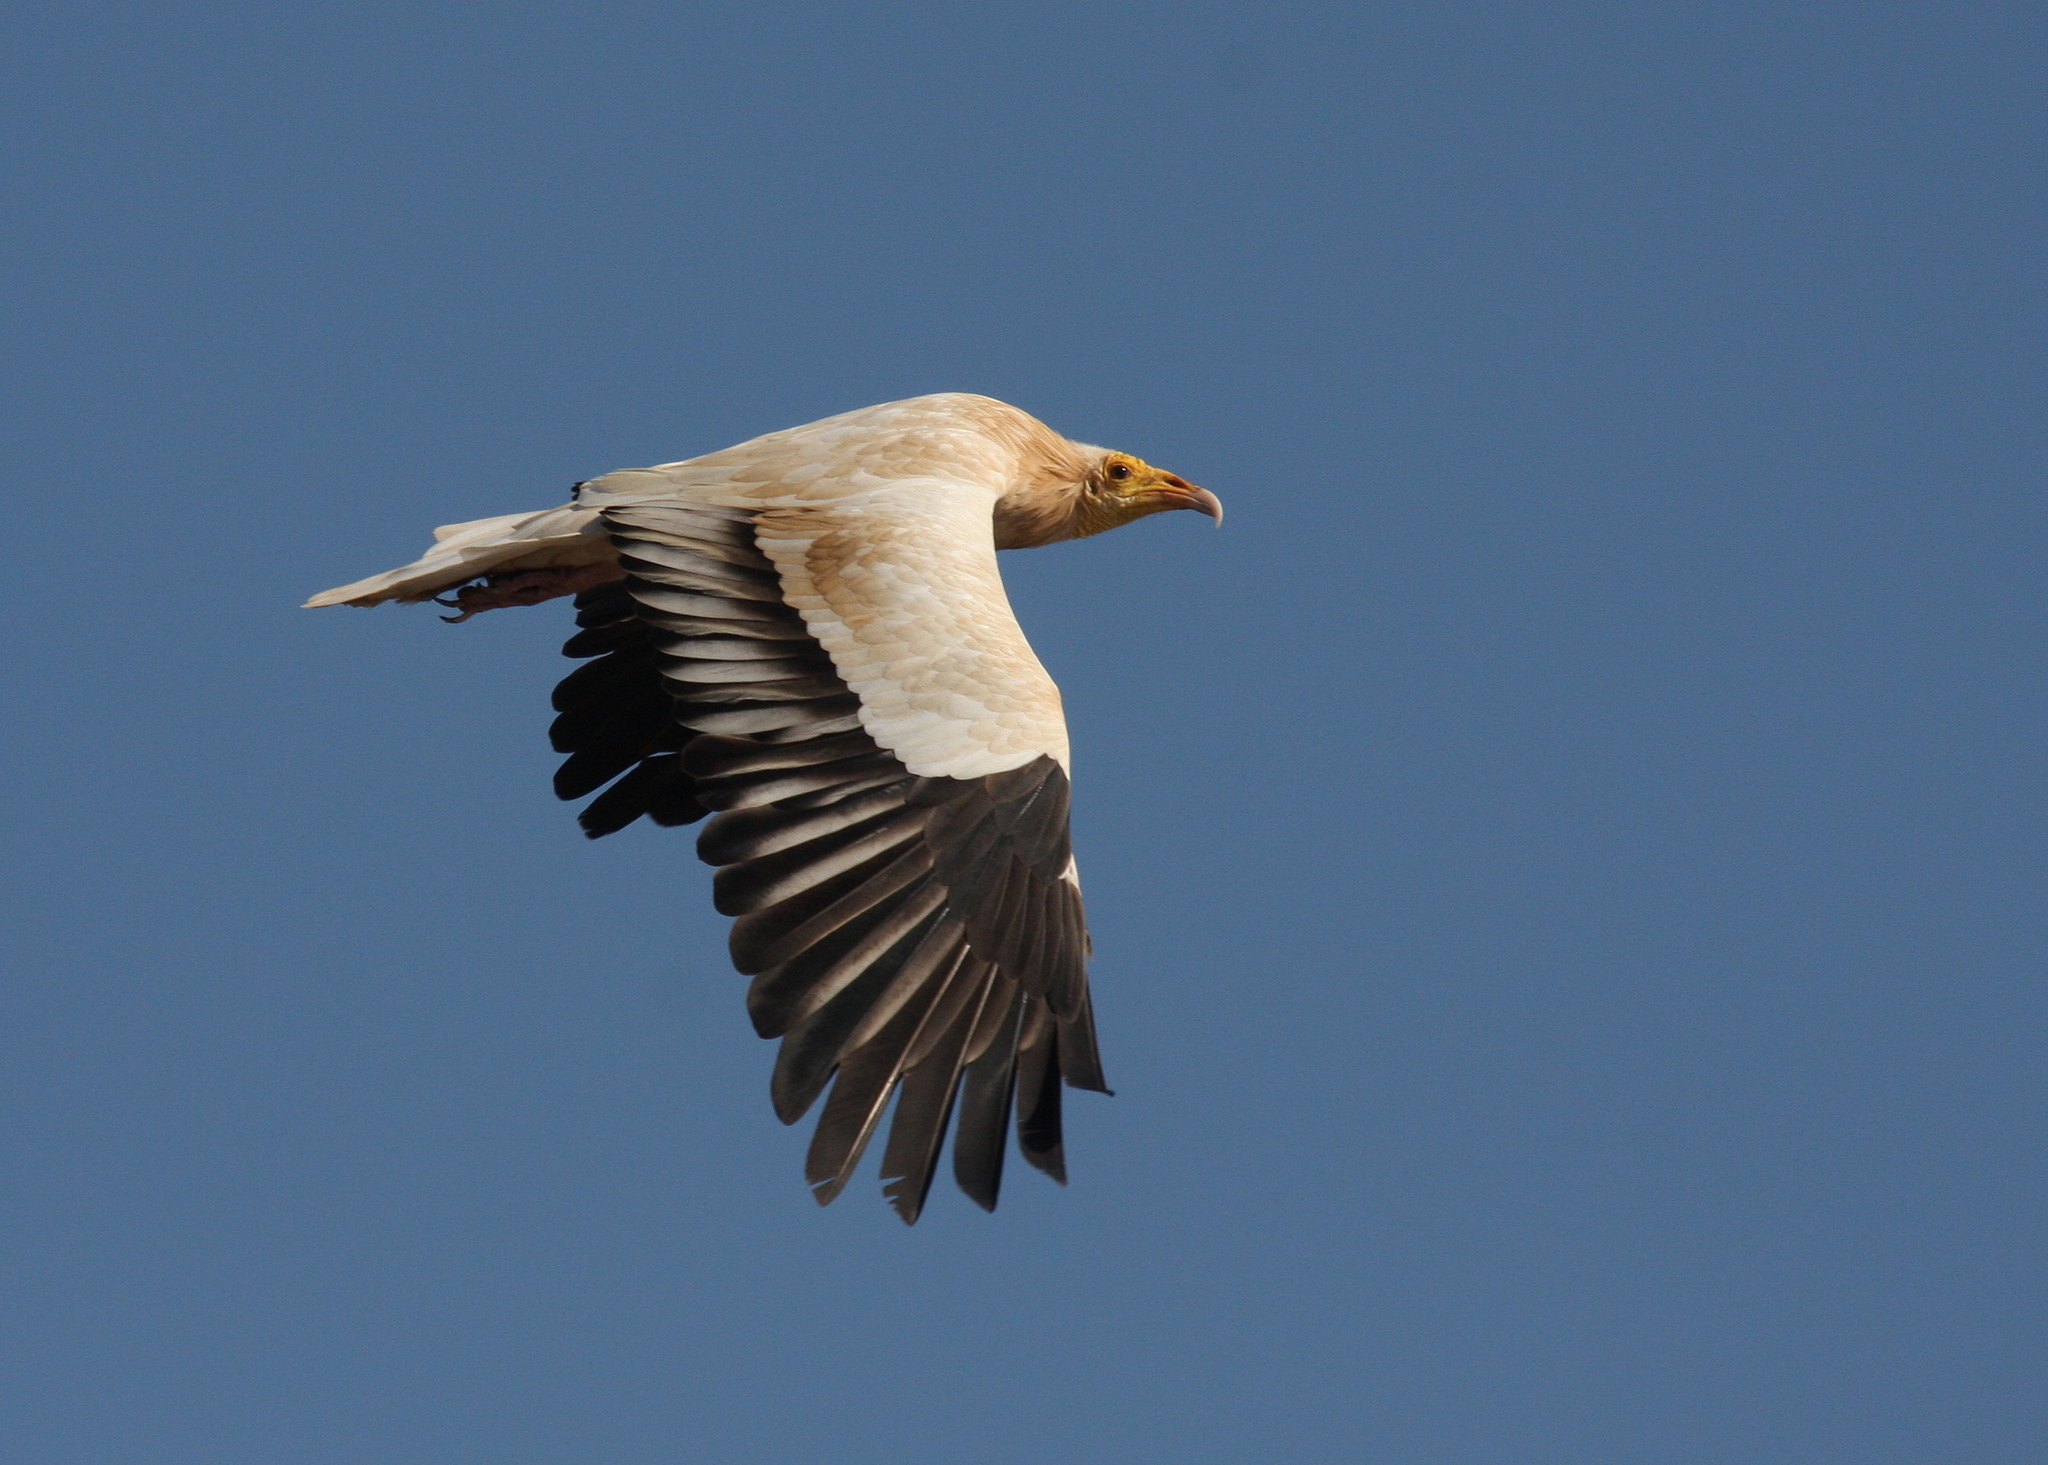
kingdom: Animalia
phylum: Chordata
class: Aves
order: Accipitriformes
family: Accipitridae
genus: Neophron
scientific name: Neophron percnopterus
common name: Egyptian vulture
